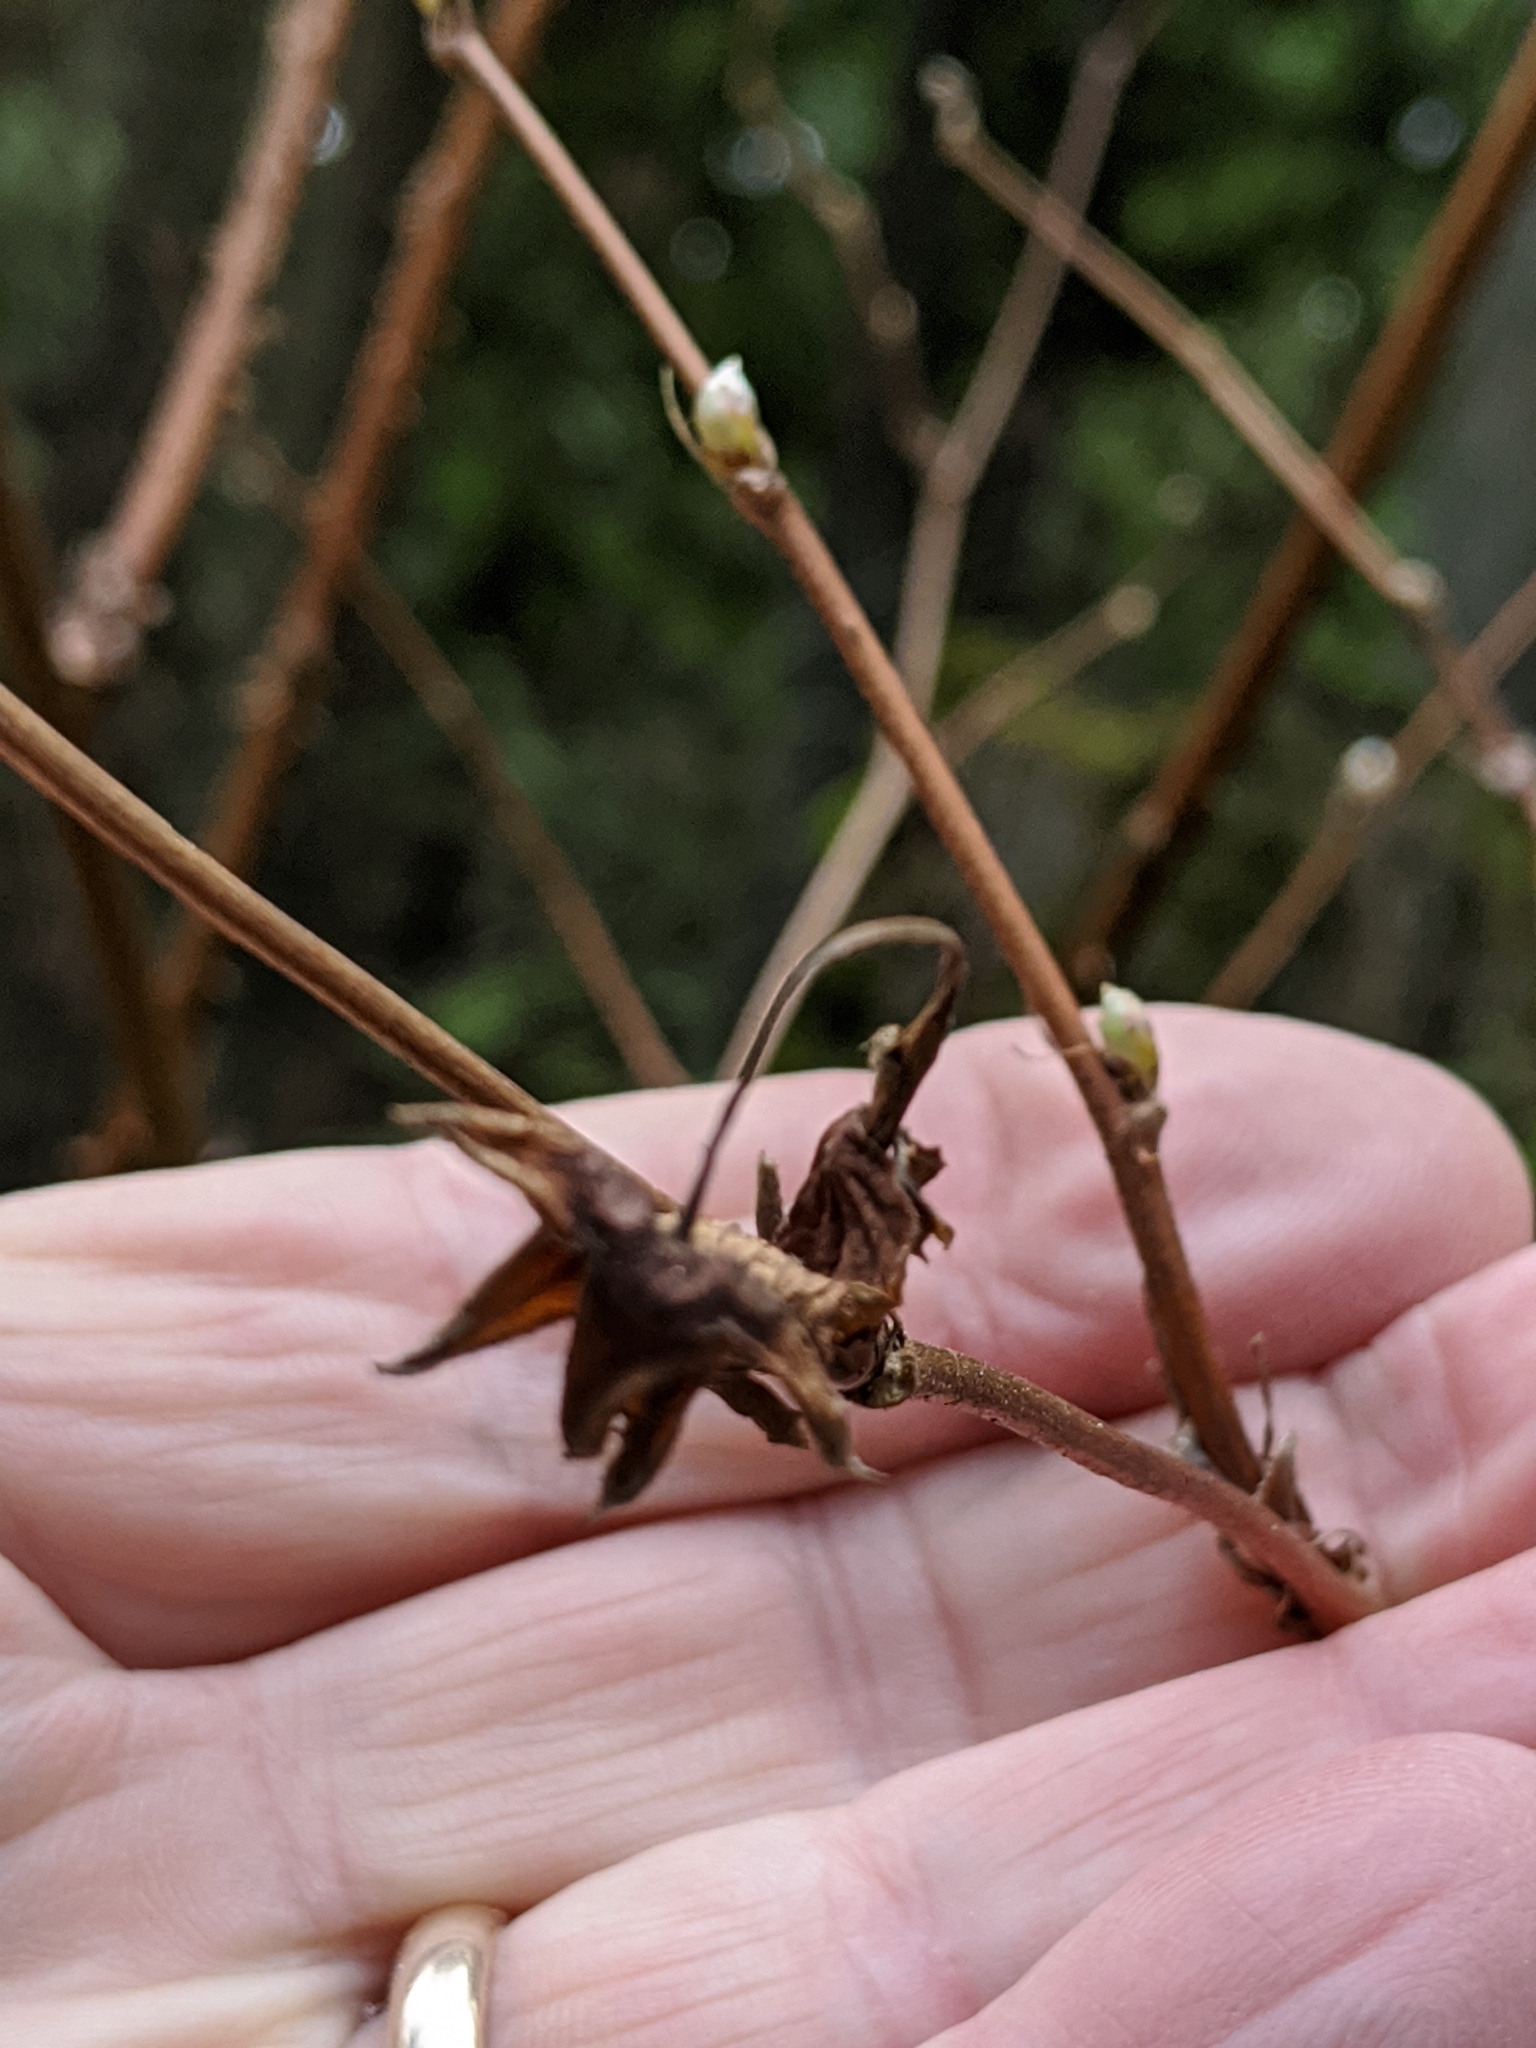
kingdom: Plantae
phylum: Tracheophyta
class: Magnoliopsida
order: Rosales
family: Rosaceae
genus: Rubus
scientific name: Rubus spectabilis
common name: Salmonberry
